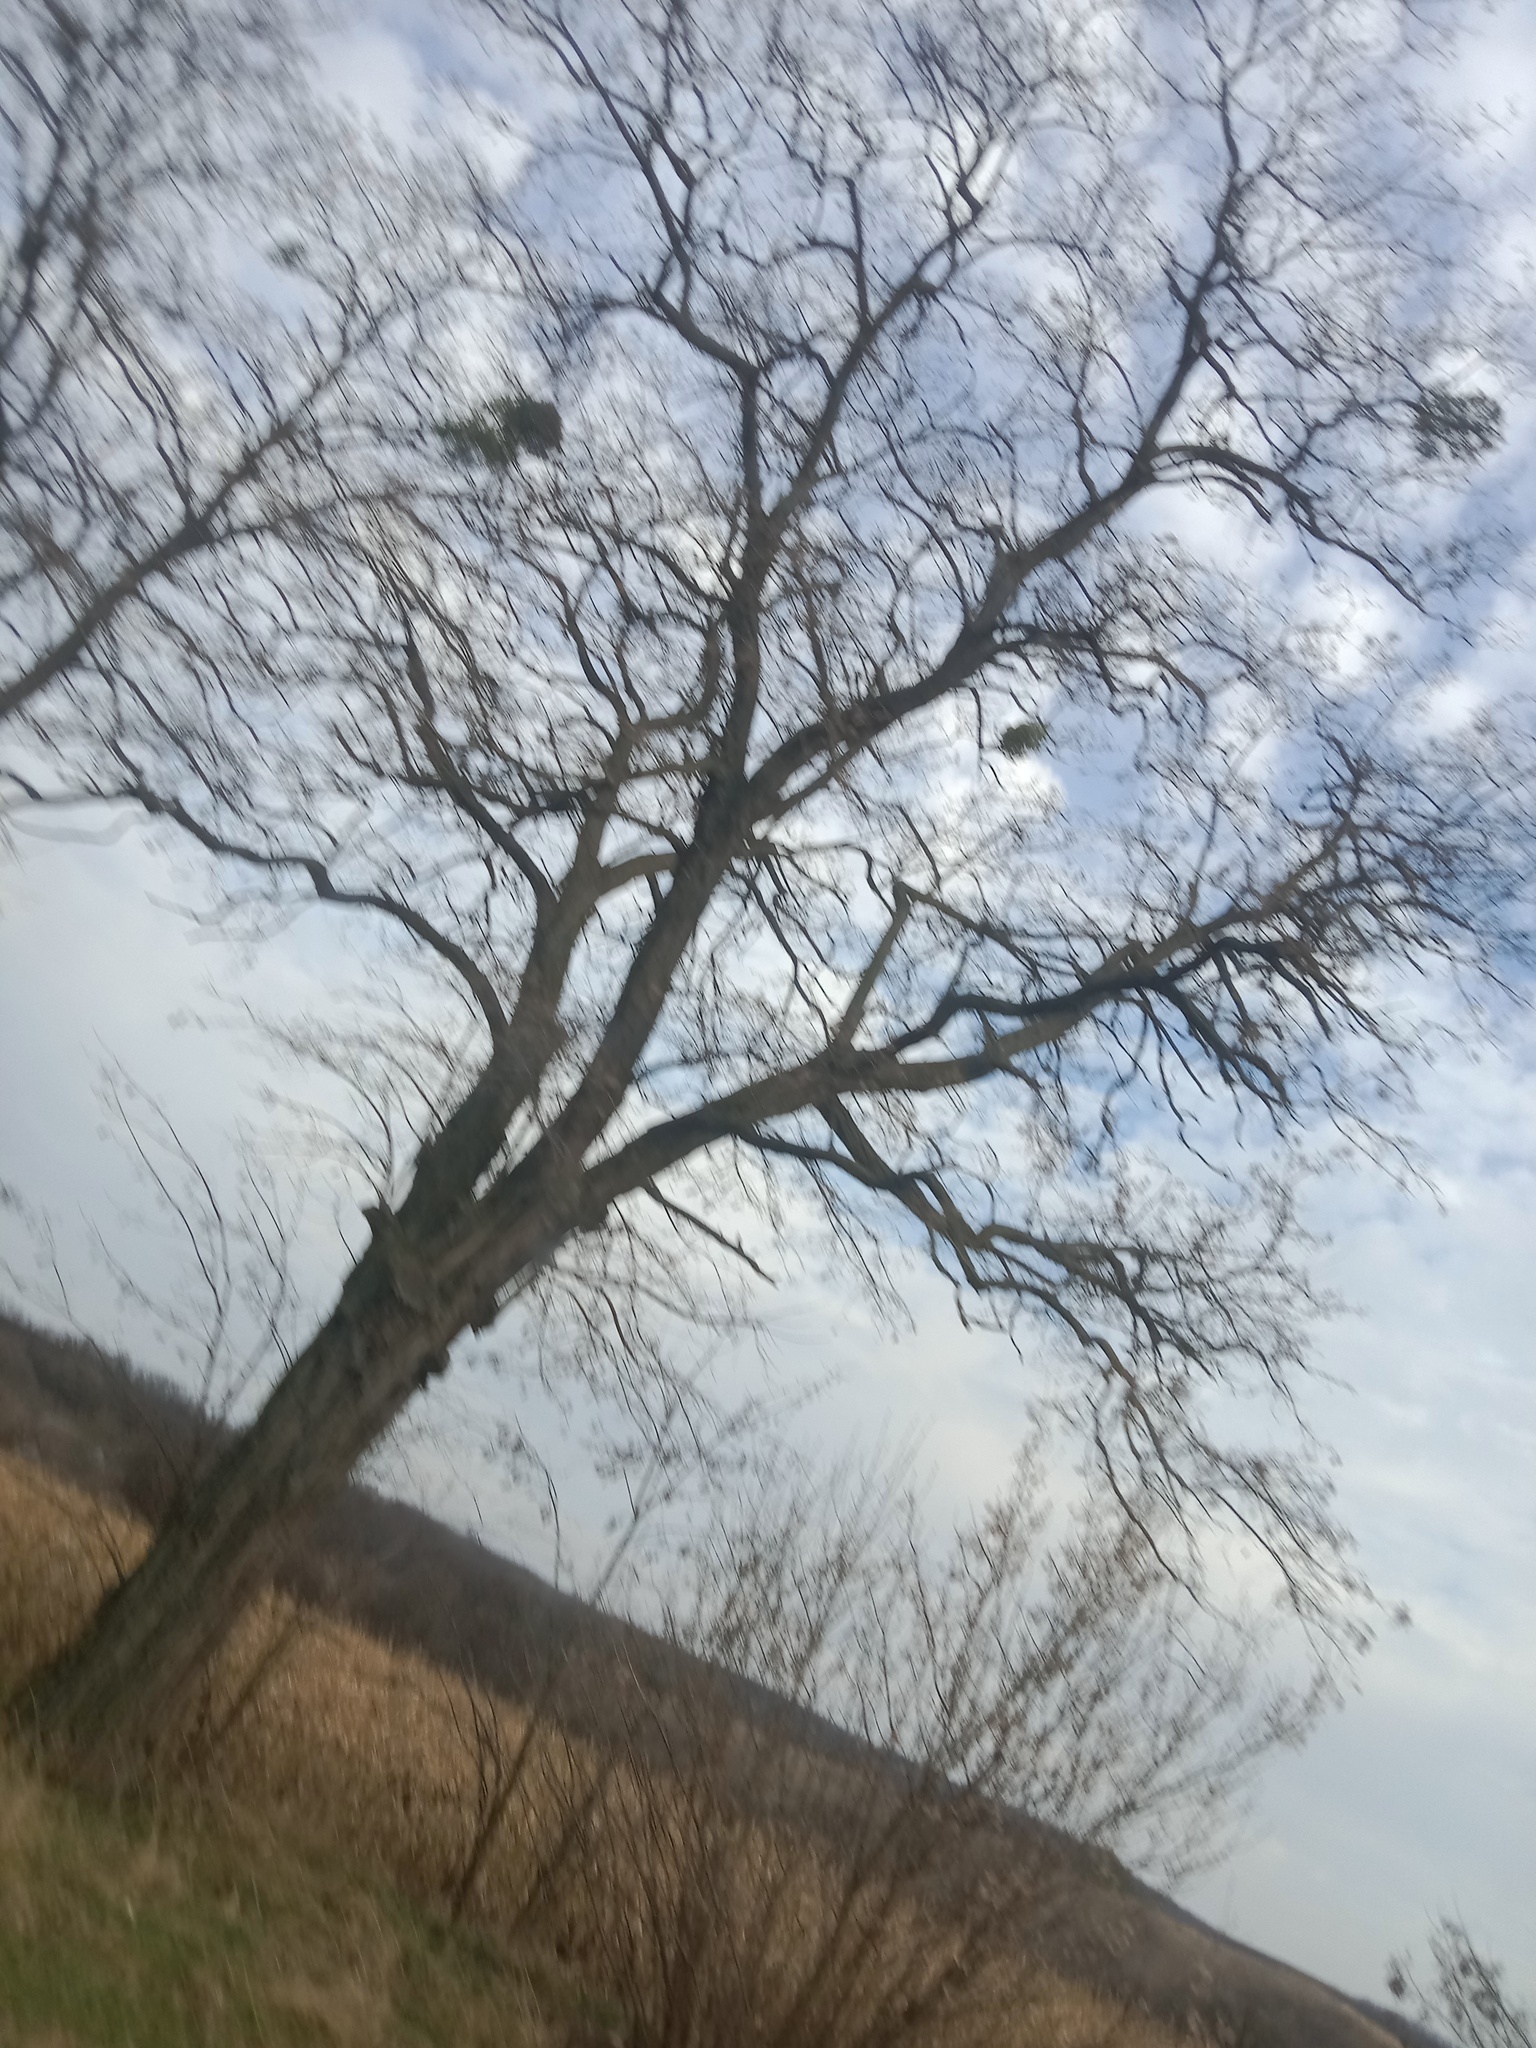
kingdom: Plantae
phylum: Tracheophyta
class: Magnoliopsida
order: Santalales
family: Viscaceae
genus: Viscum
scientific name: Viscum album
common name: Mistletoe
